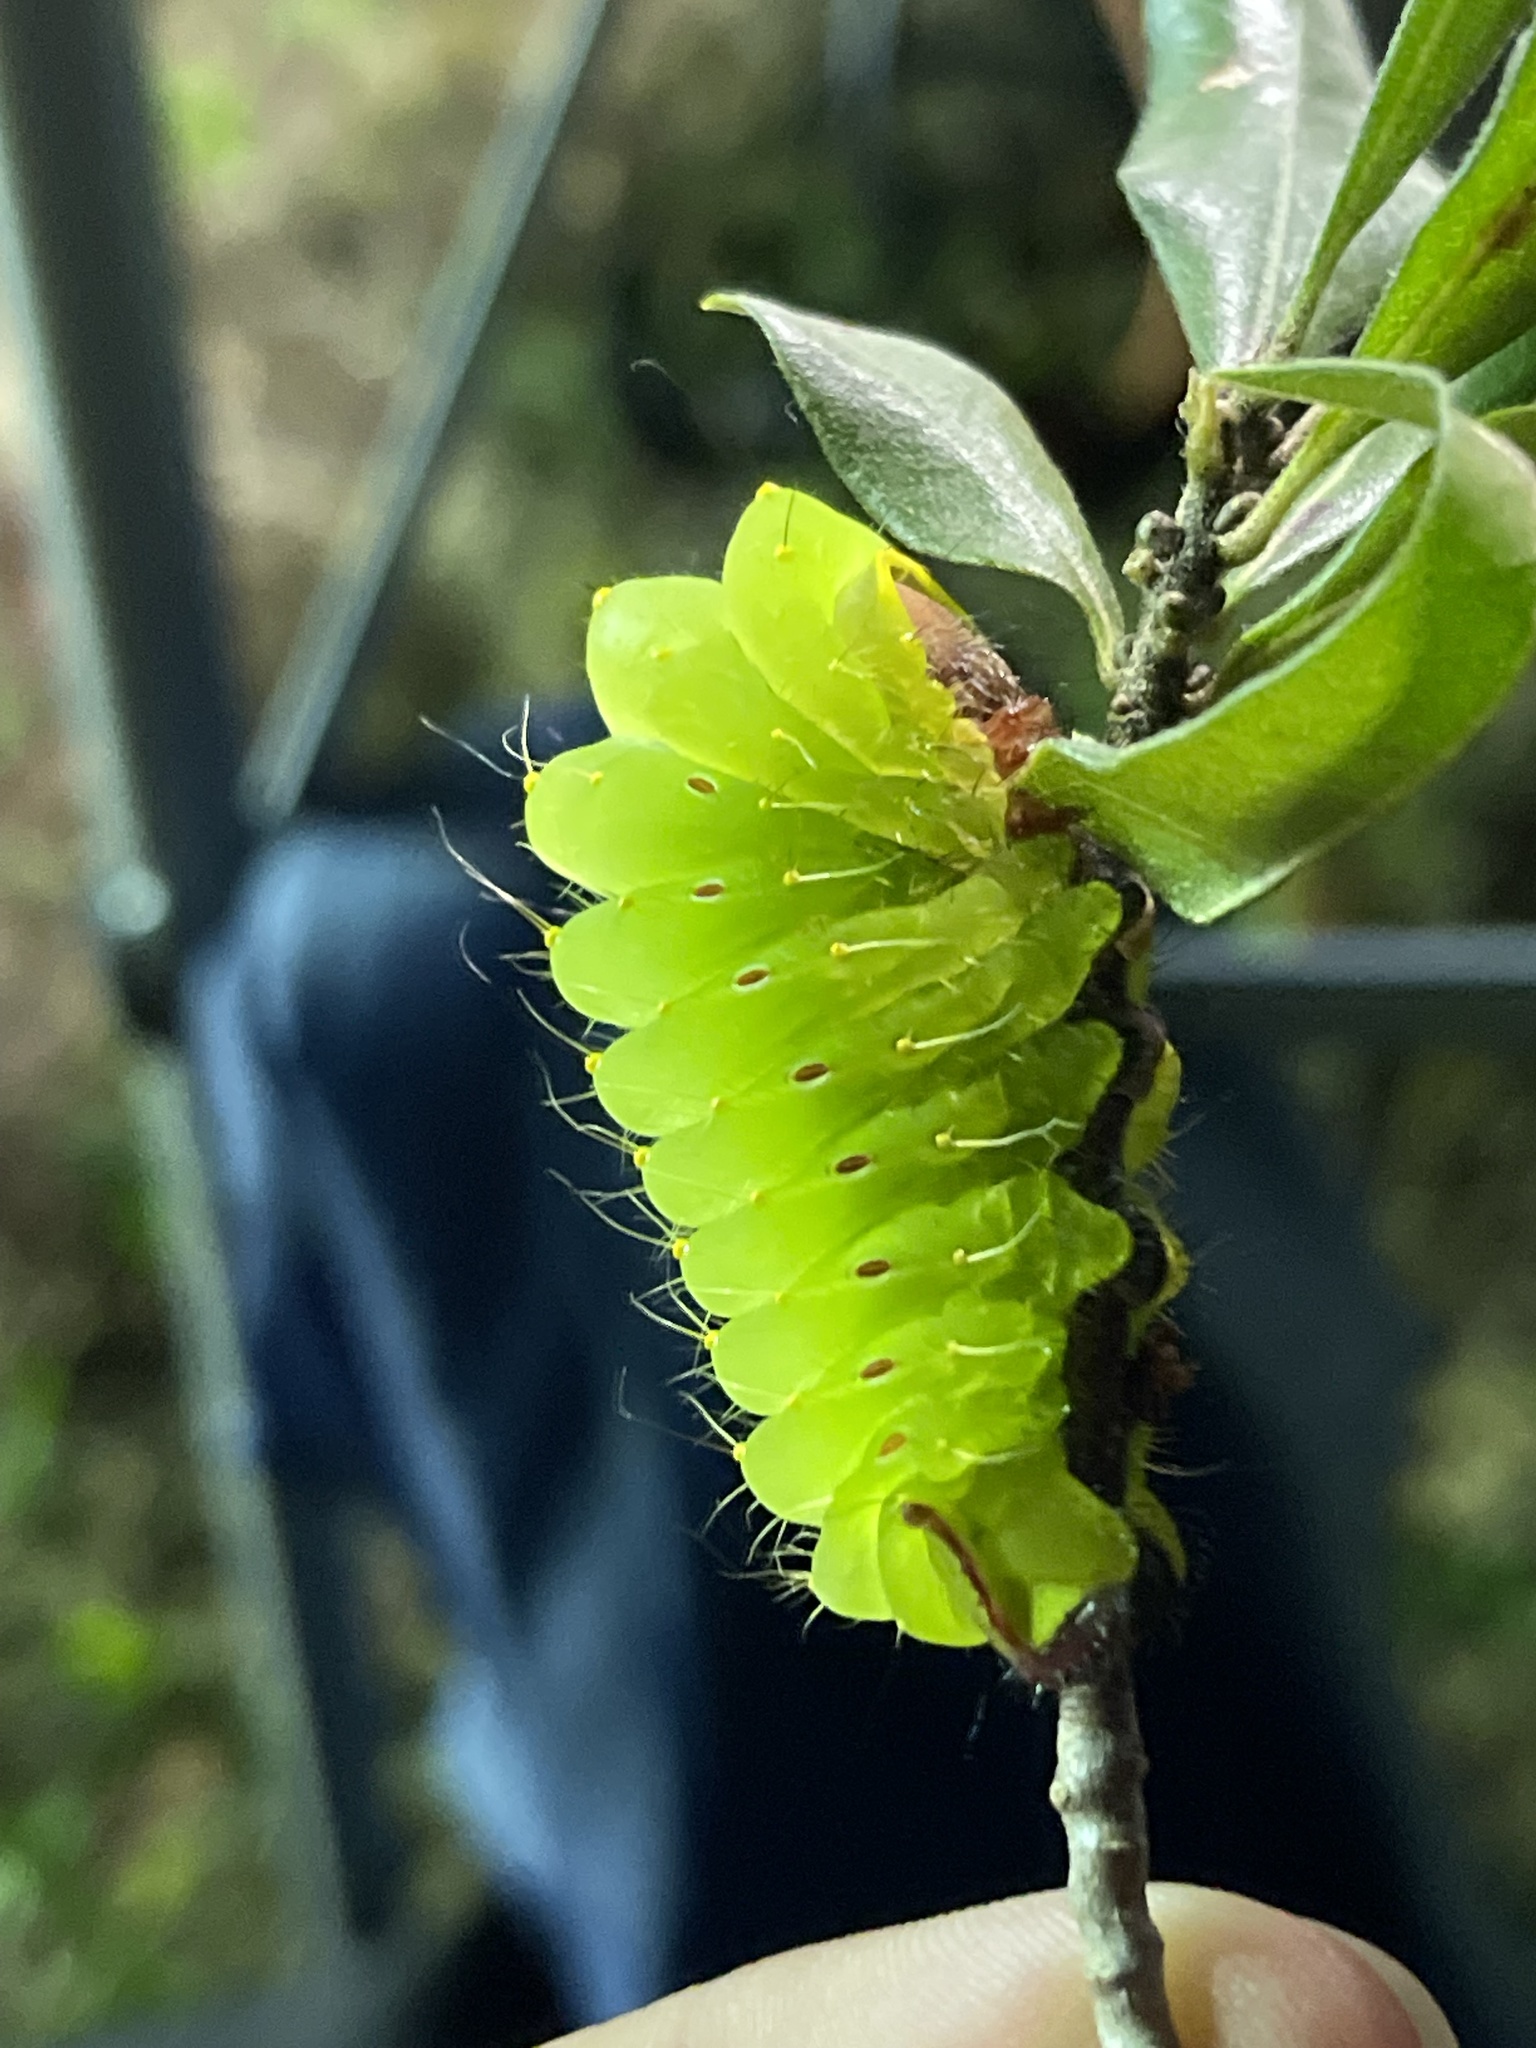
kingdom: Animalia
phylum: Arthropoda
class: Insecta
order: Lepidoptera
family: Saturniidae
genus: Antheraea
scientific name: Antheraea polyphemus
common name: Polyphemus moth
